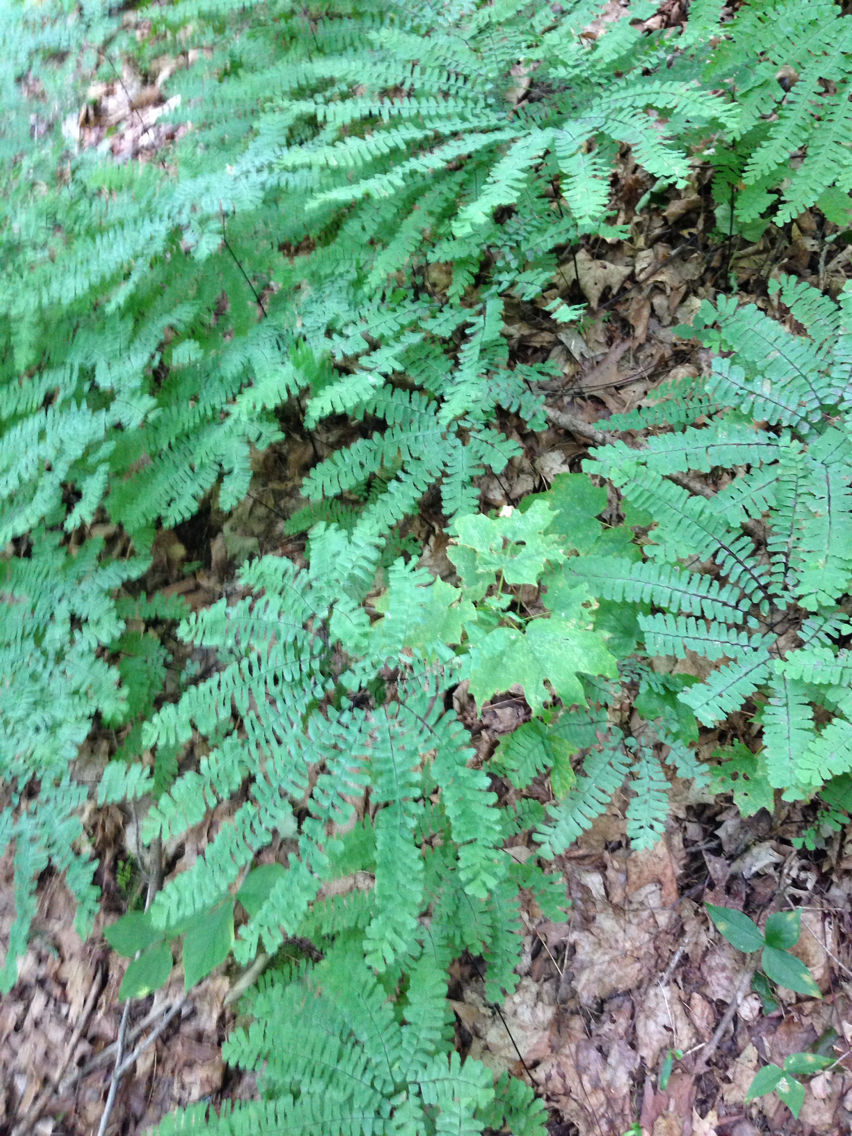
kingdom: Plantae
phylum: Tracheophyta
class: Polypodiopsida
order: Polypodiales
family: Pteridaceae
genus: Adiantum
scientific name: Adiantum pedatum
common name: Five-finger fern
